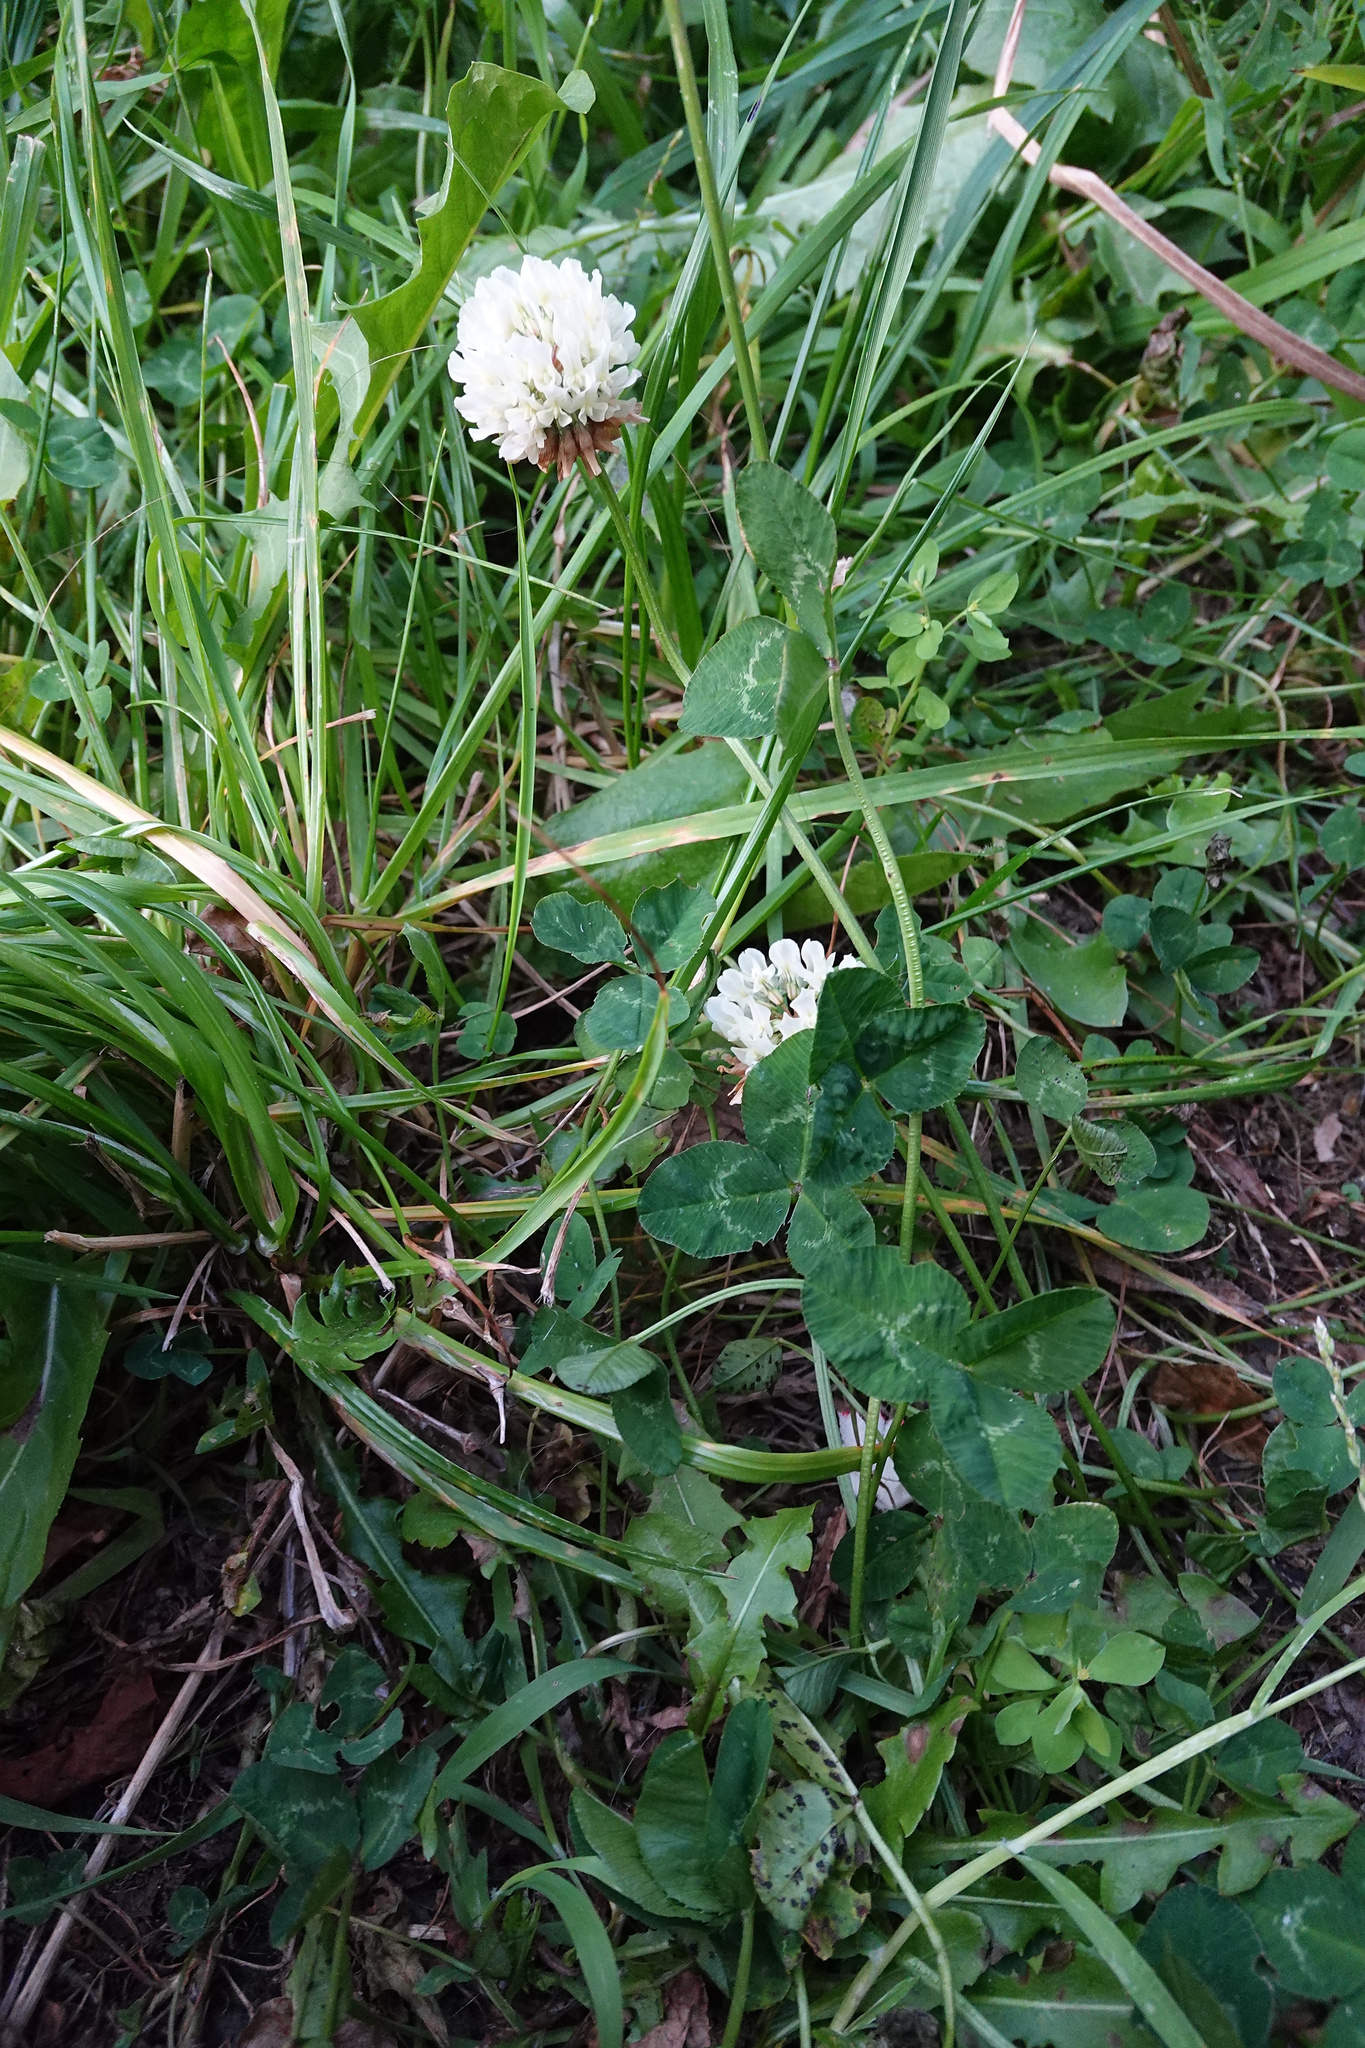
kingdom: Plantae
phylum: Tracheophyta
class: Magnoliopsida
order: Fabales
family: Fabaceae
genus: Trifolium
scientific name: Trifolium repens
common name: White clover
